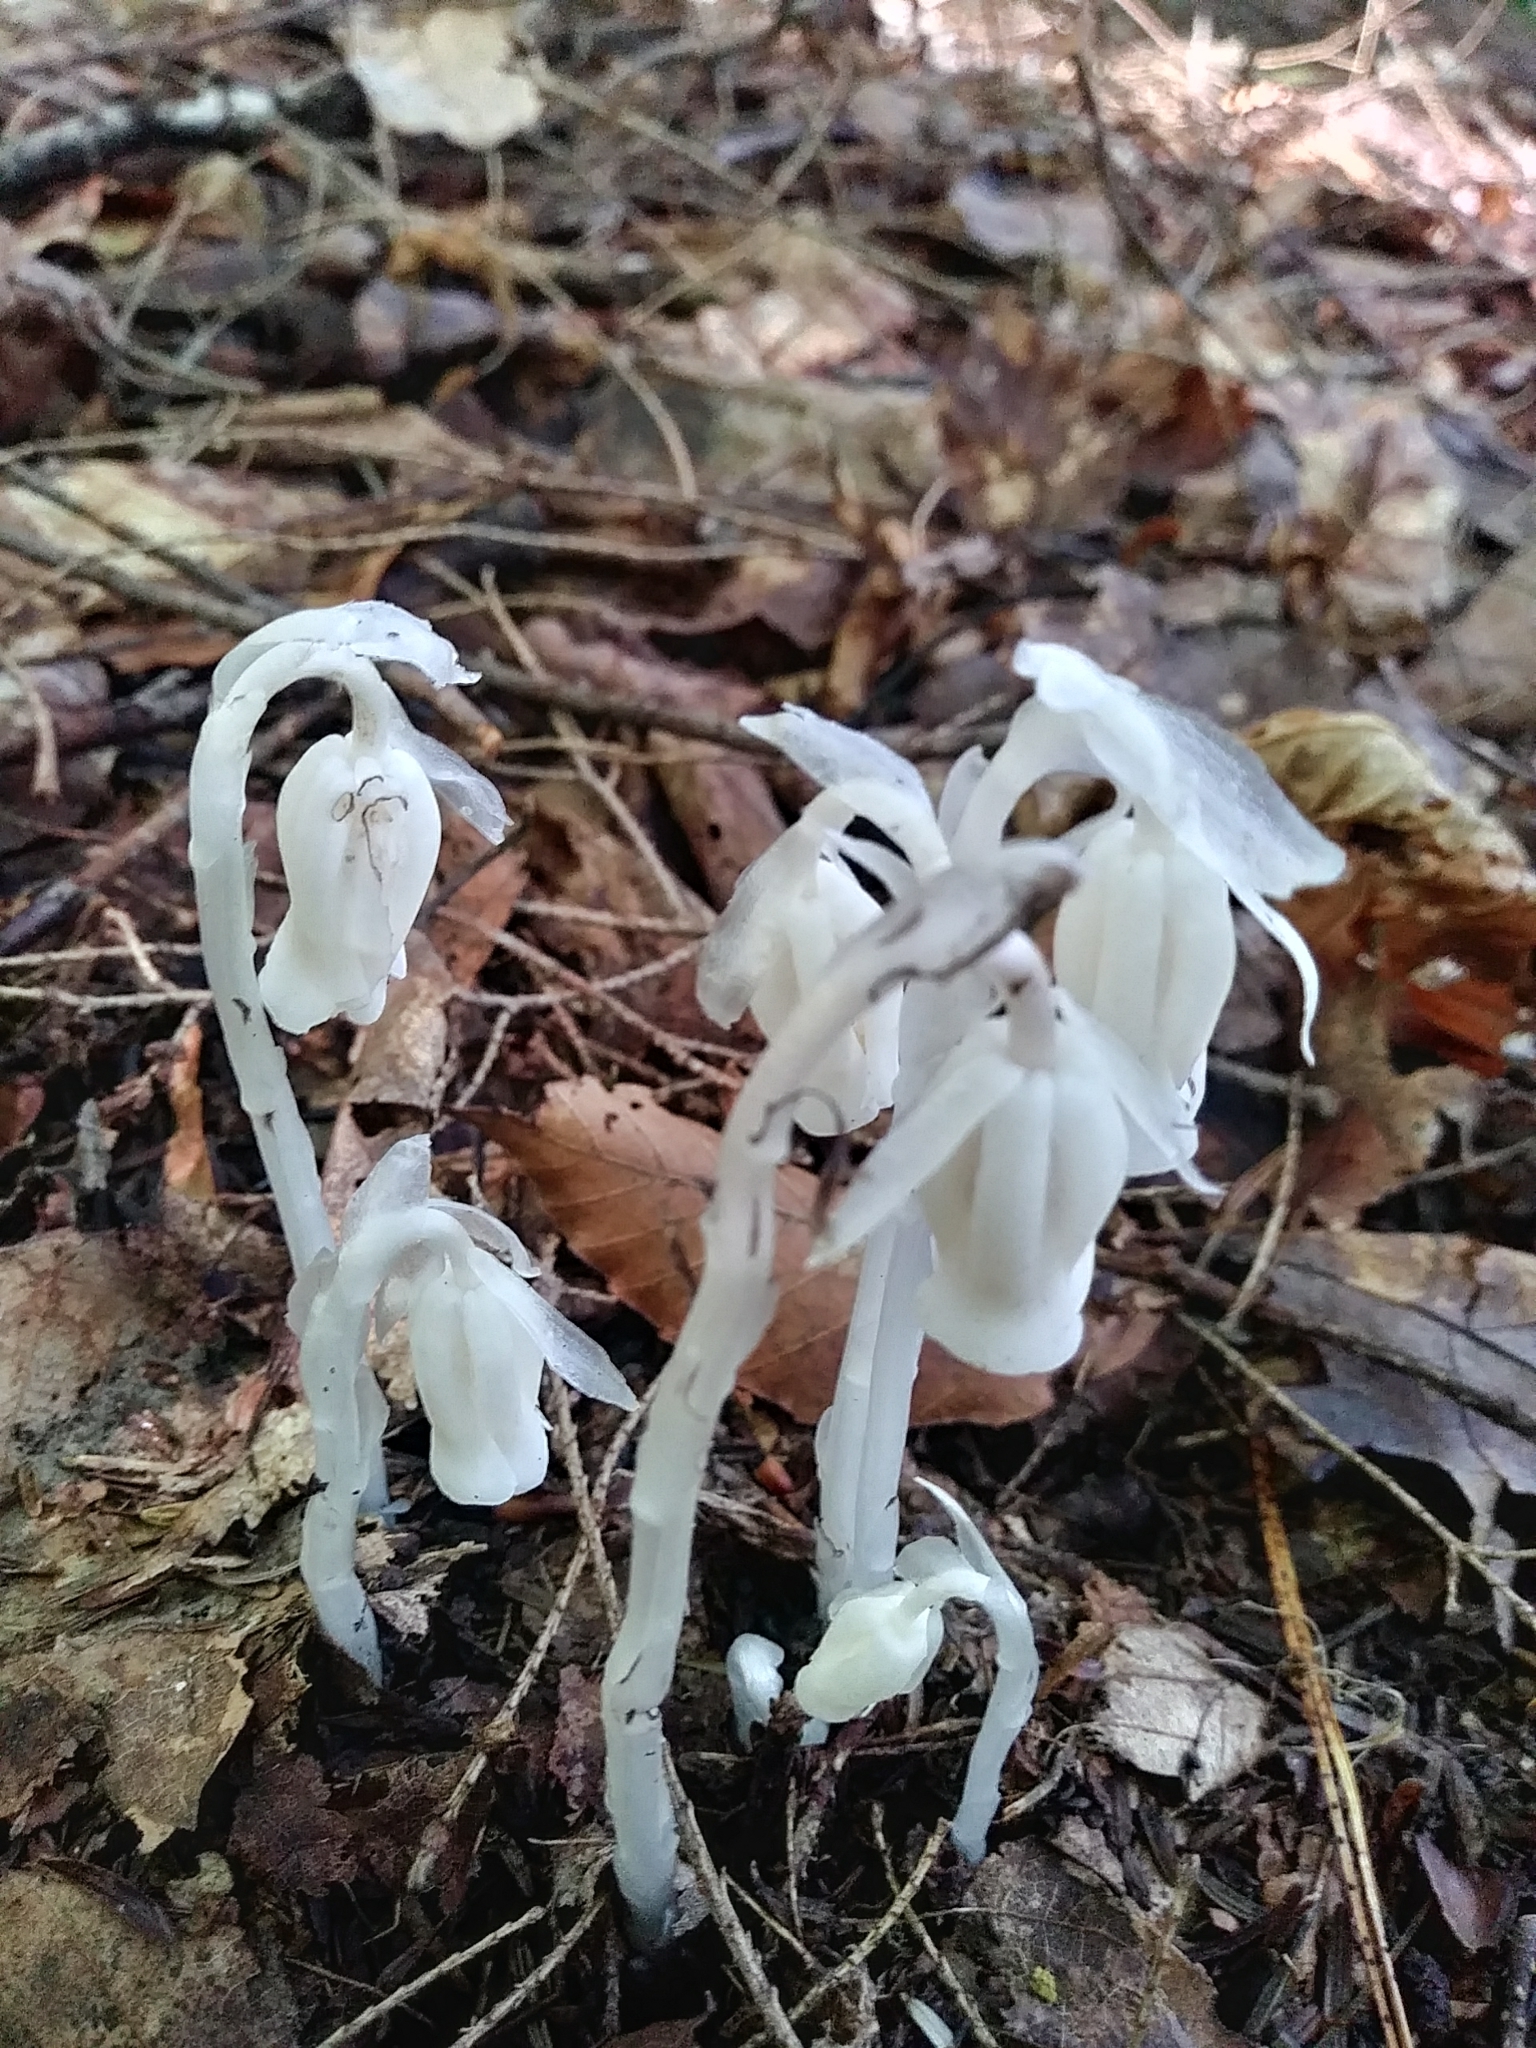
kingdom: Plantae
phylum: Tracheophyta
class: Magnoliopsida
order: Ericales
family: Ericaceae
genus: Monotropa
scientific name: Monotropa uniflora
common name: Convulsion root
